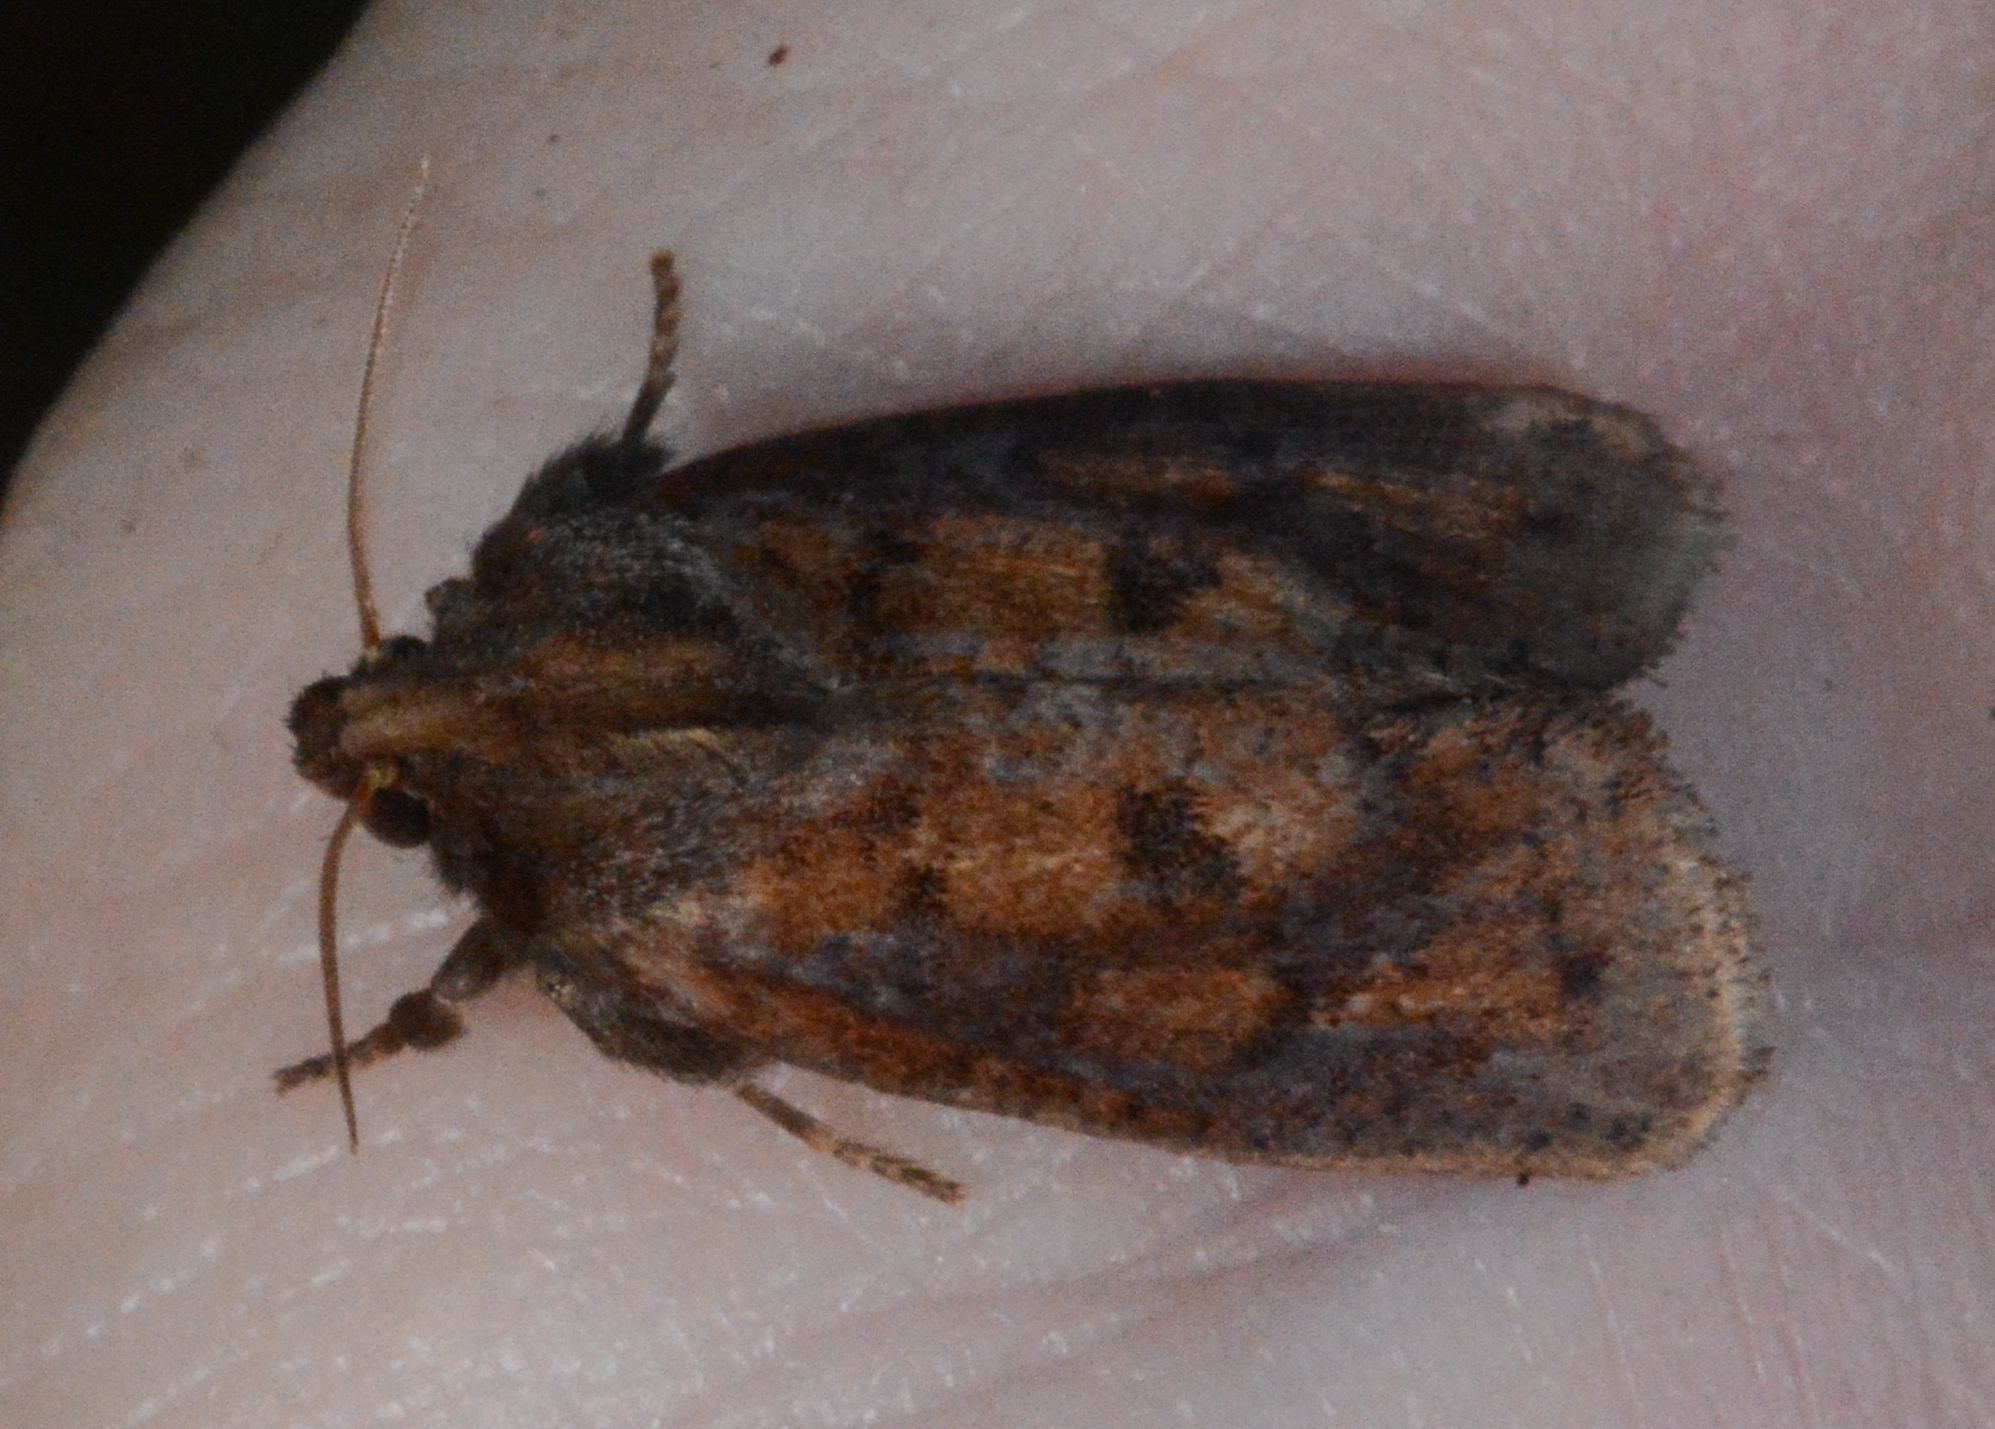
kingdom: Animalia
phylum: Arthropoda
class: Insecta
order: Lepidoptera
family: Tineidae
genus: Acrolophus
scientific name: Acrolophus plumifrontella
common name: Eastern grass tubeworm moth
